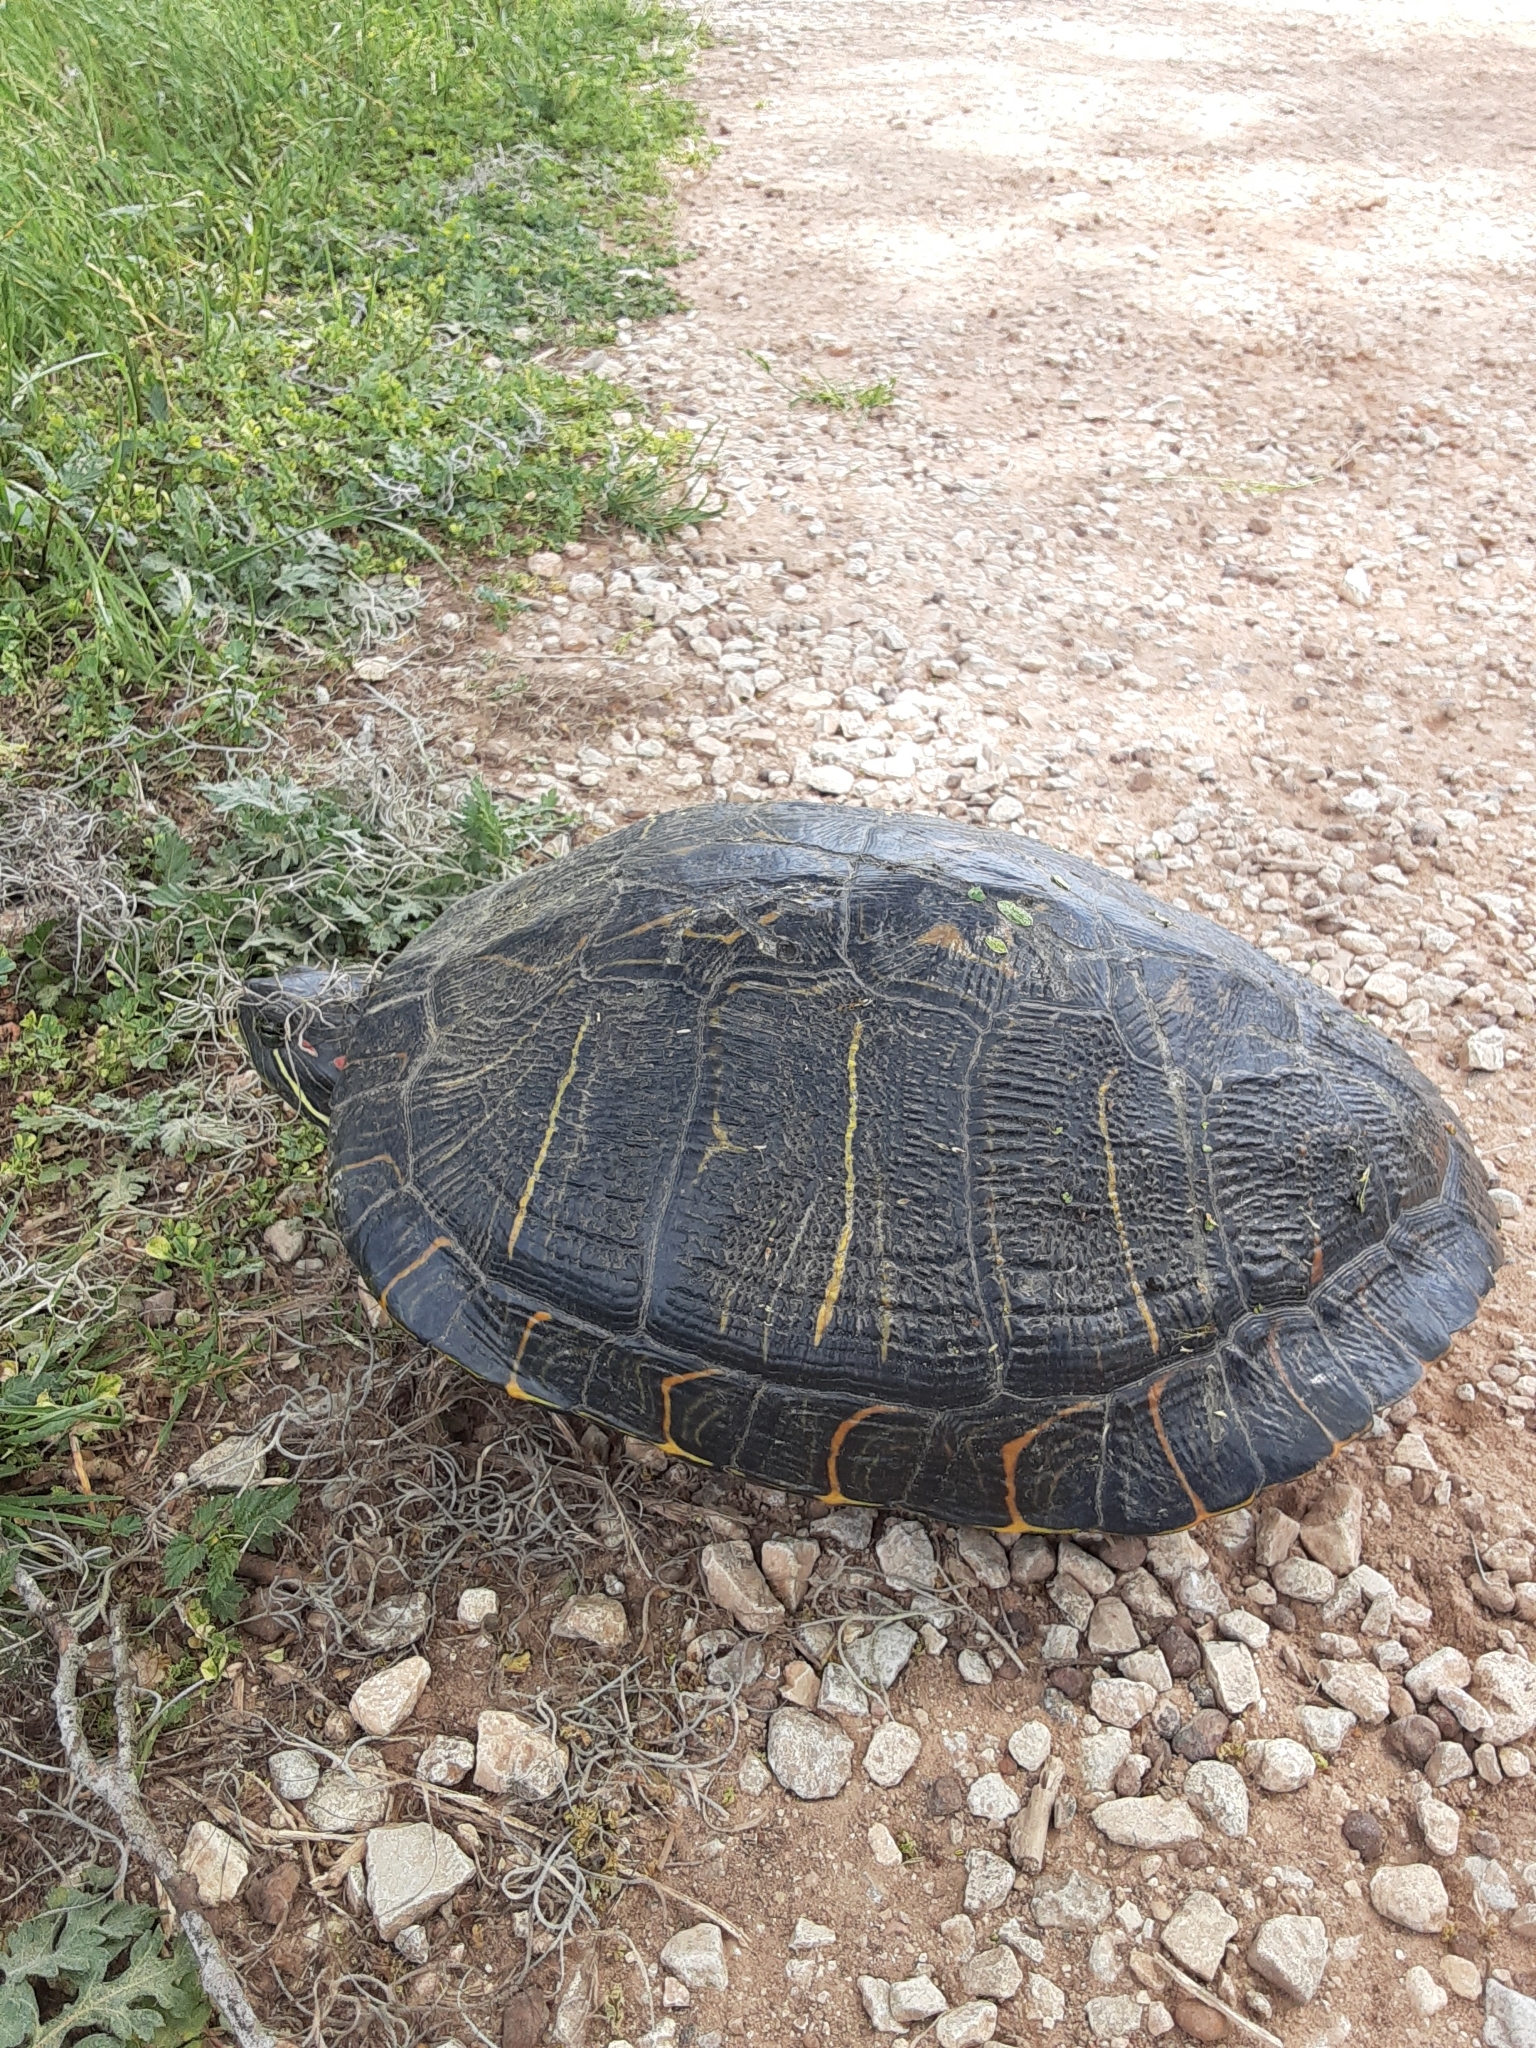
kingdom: Animalia
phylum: Chordata
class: Testudines
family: Emydidae
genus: Trachemys
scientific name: Trachemys scripta
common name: Slider
